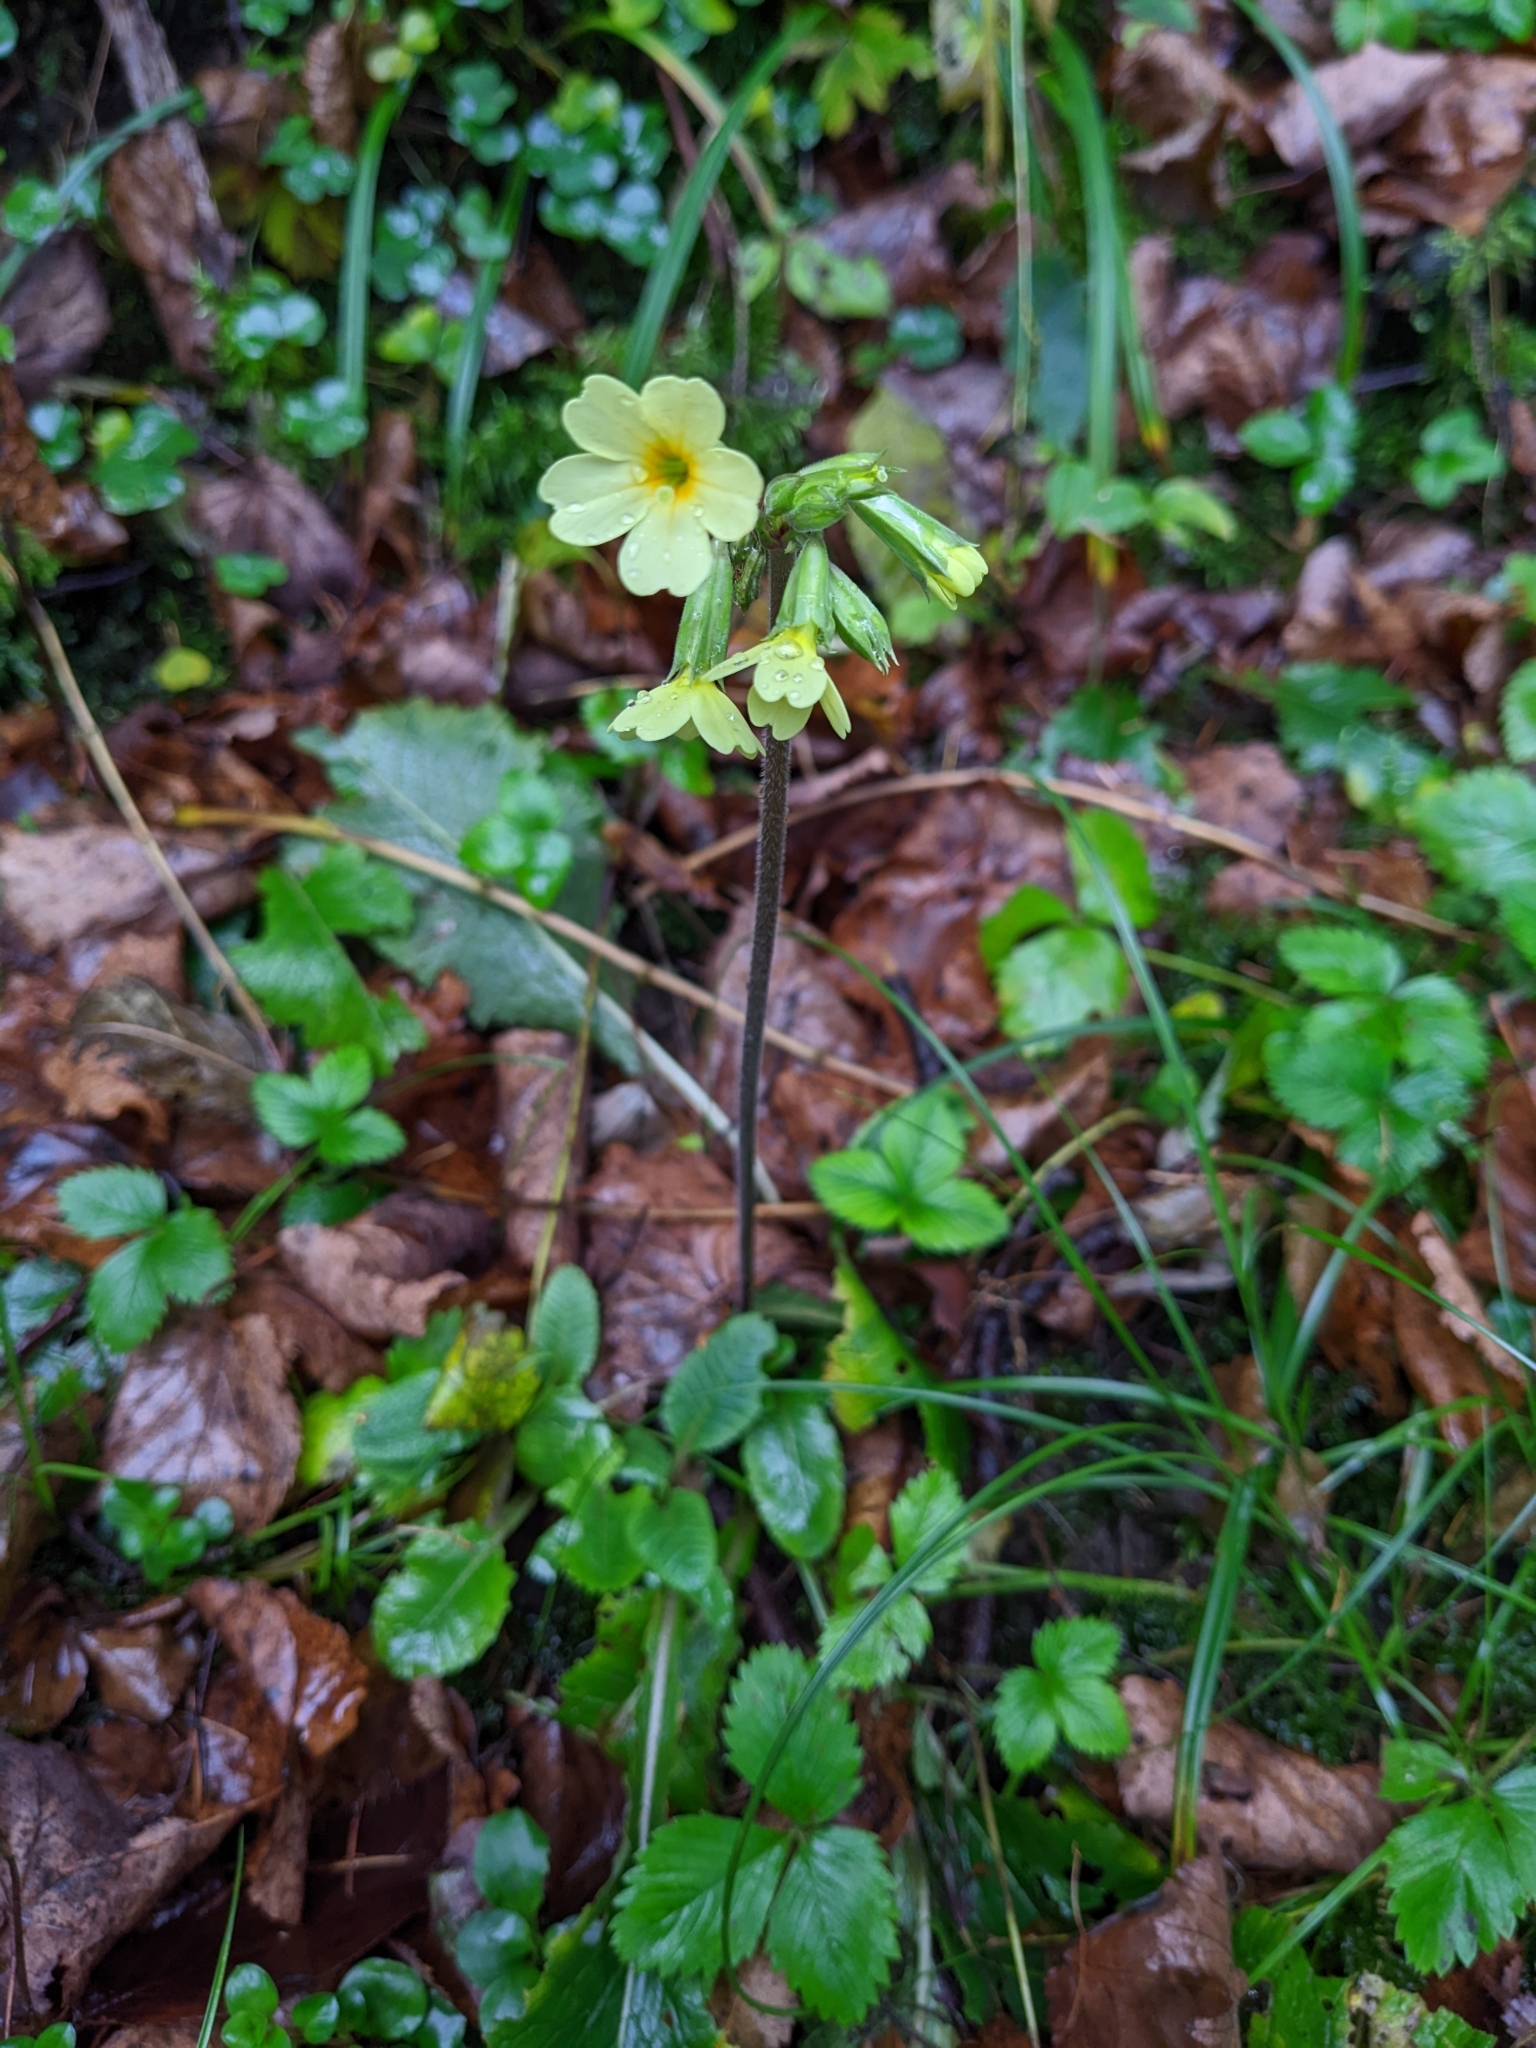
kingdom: Plantae
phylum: Tracheophyta
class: Magnoliopsida
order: Ericales
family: Primulaceae
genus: Primula
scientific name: Primula elatior
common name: Oxlip
